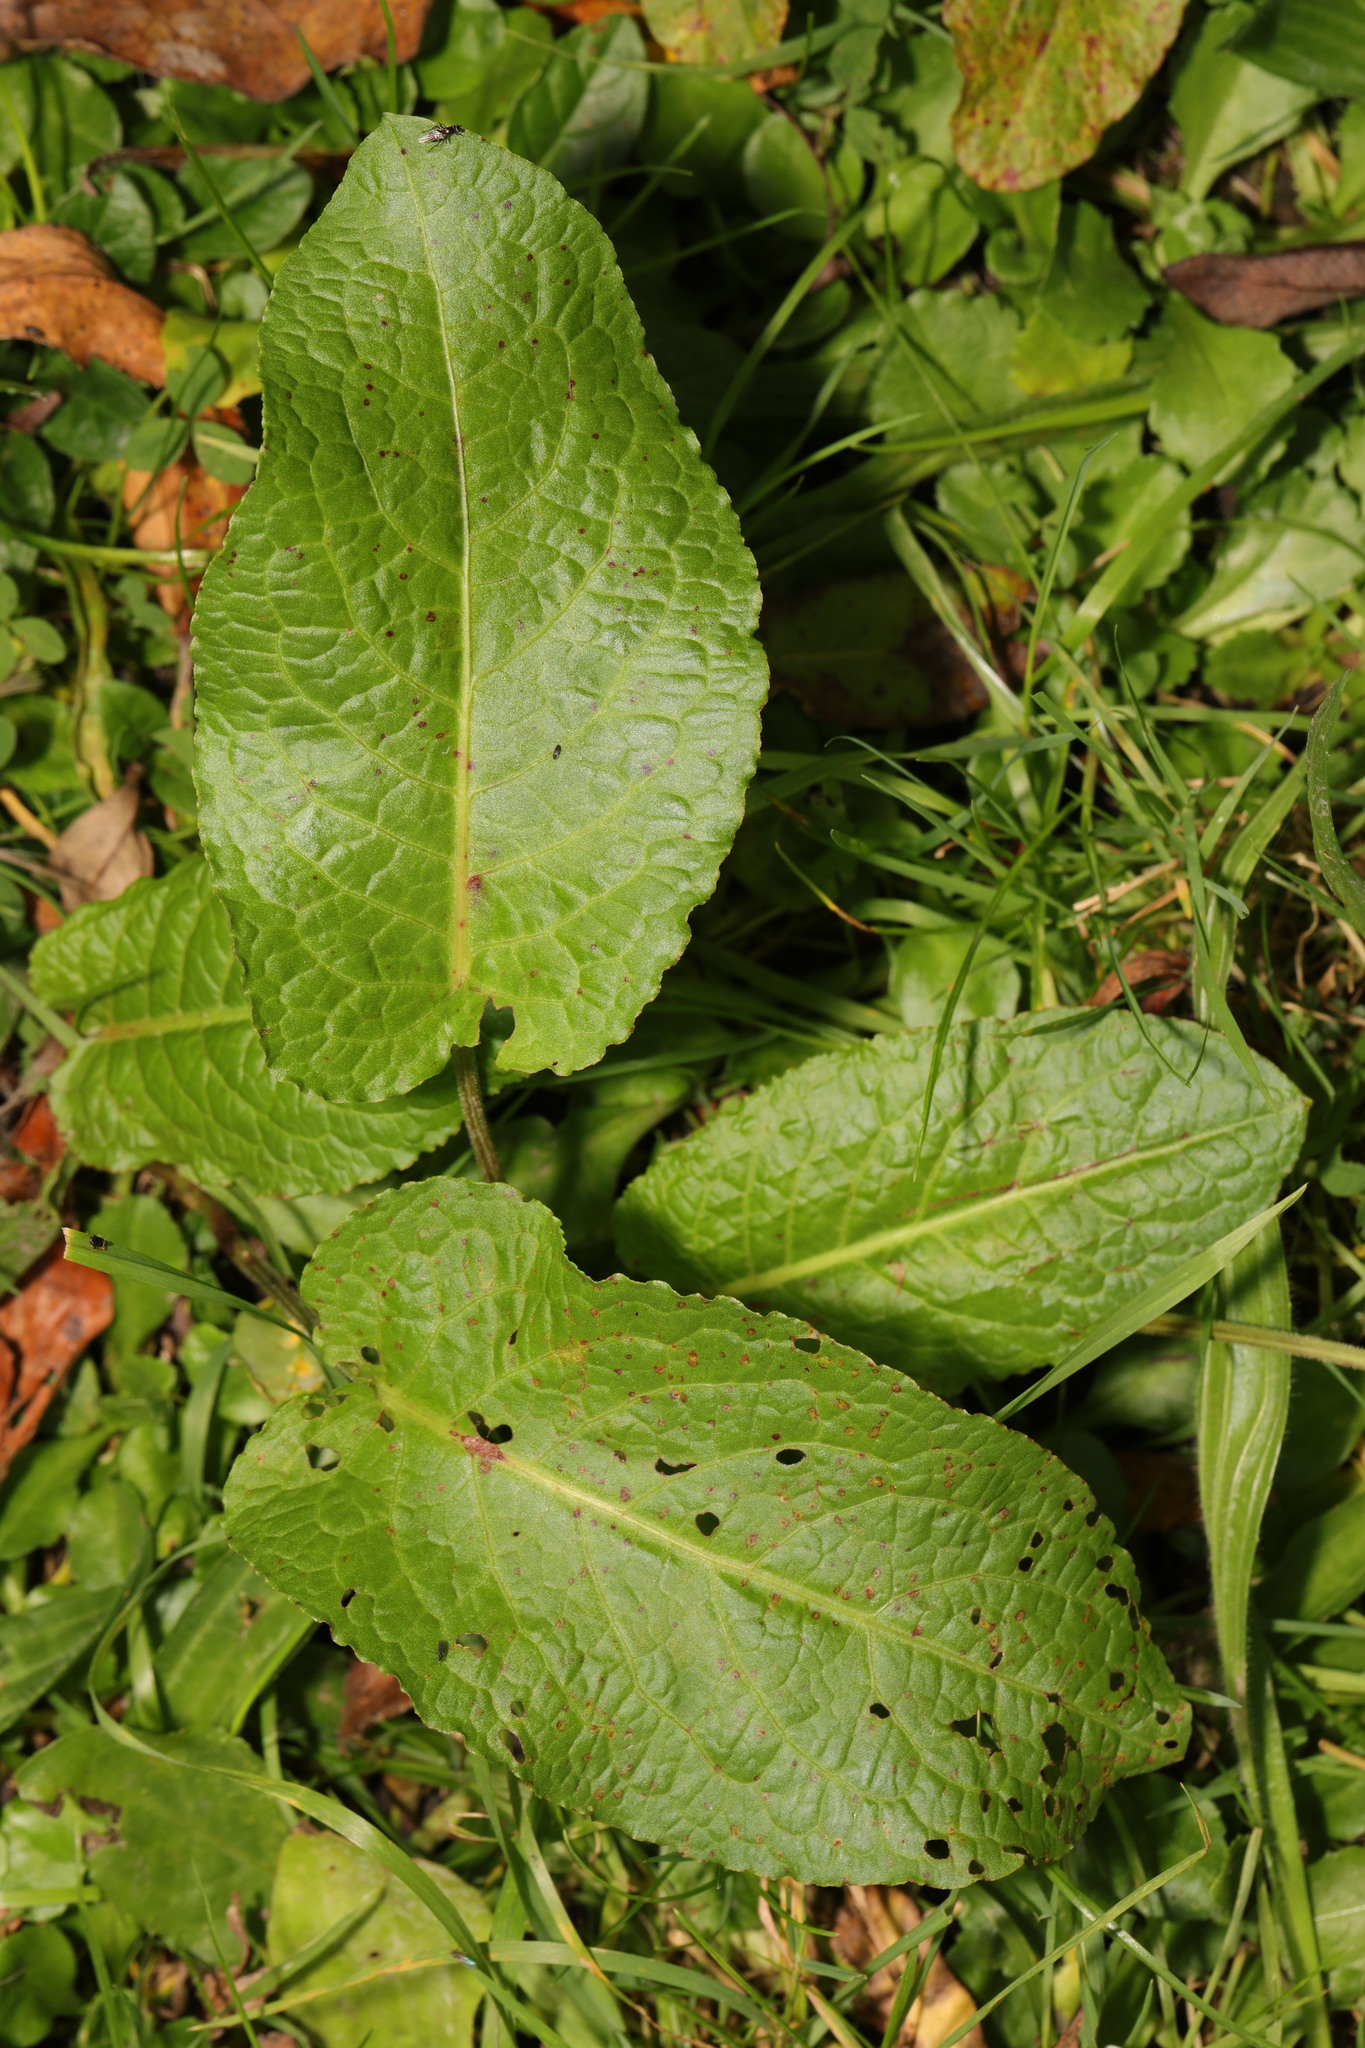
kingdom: Plantae
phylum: Tracheophyta
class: Magnoliopsida
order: Caryophyllales
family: Polygonaceae
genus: Rumex
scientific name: Rumex obtusifolius
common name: Bitter dock
